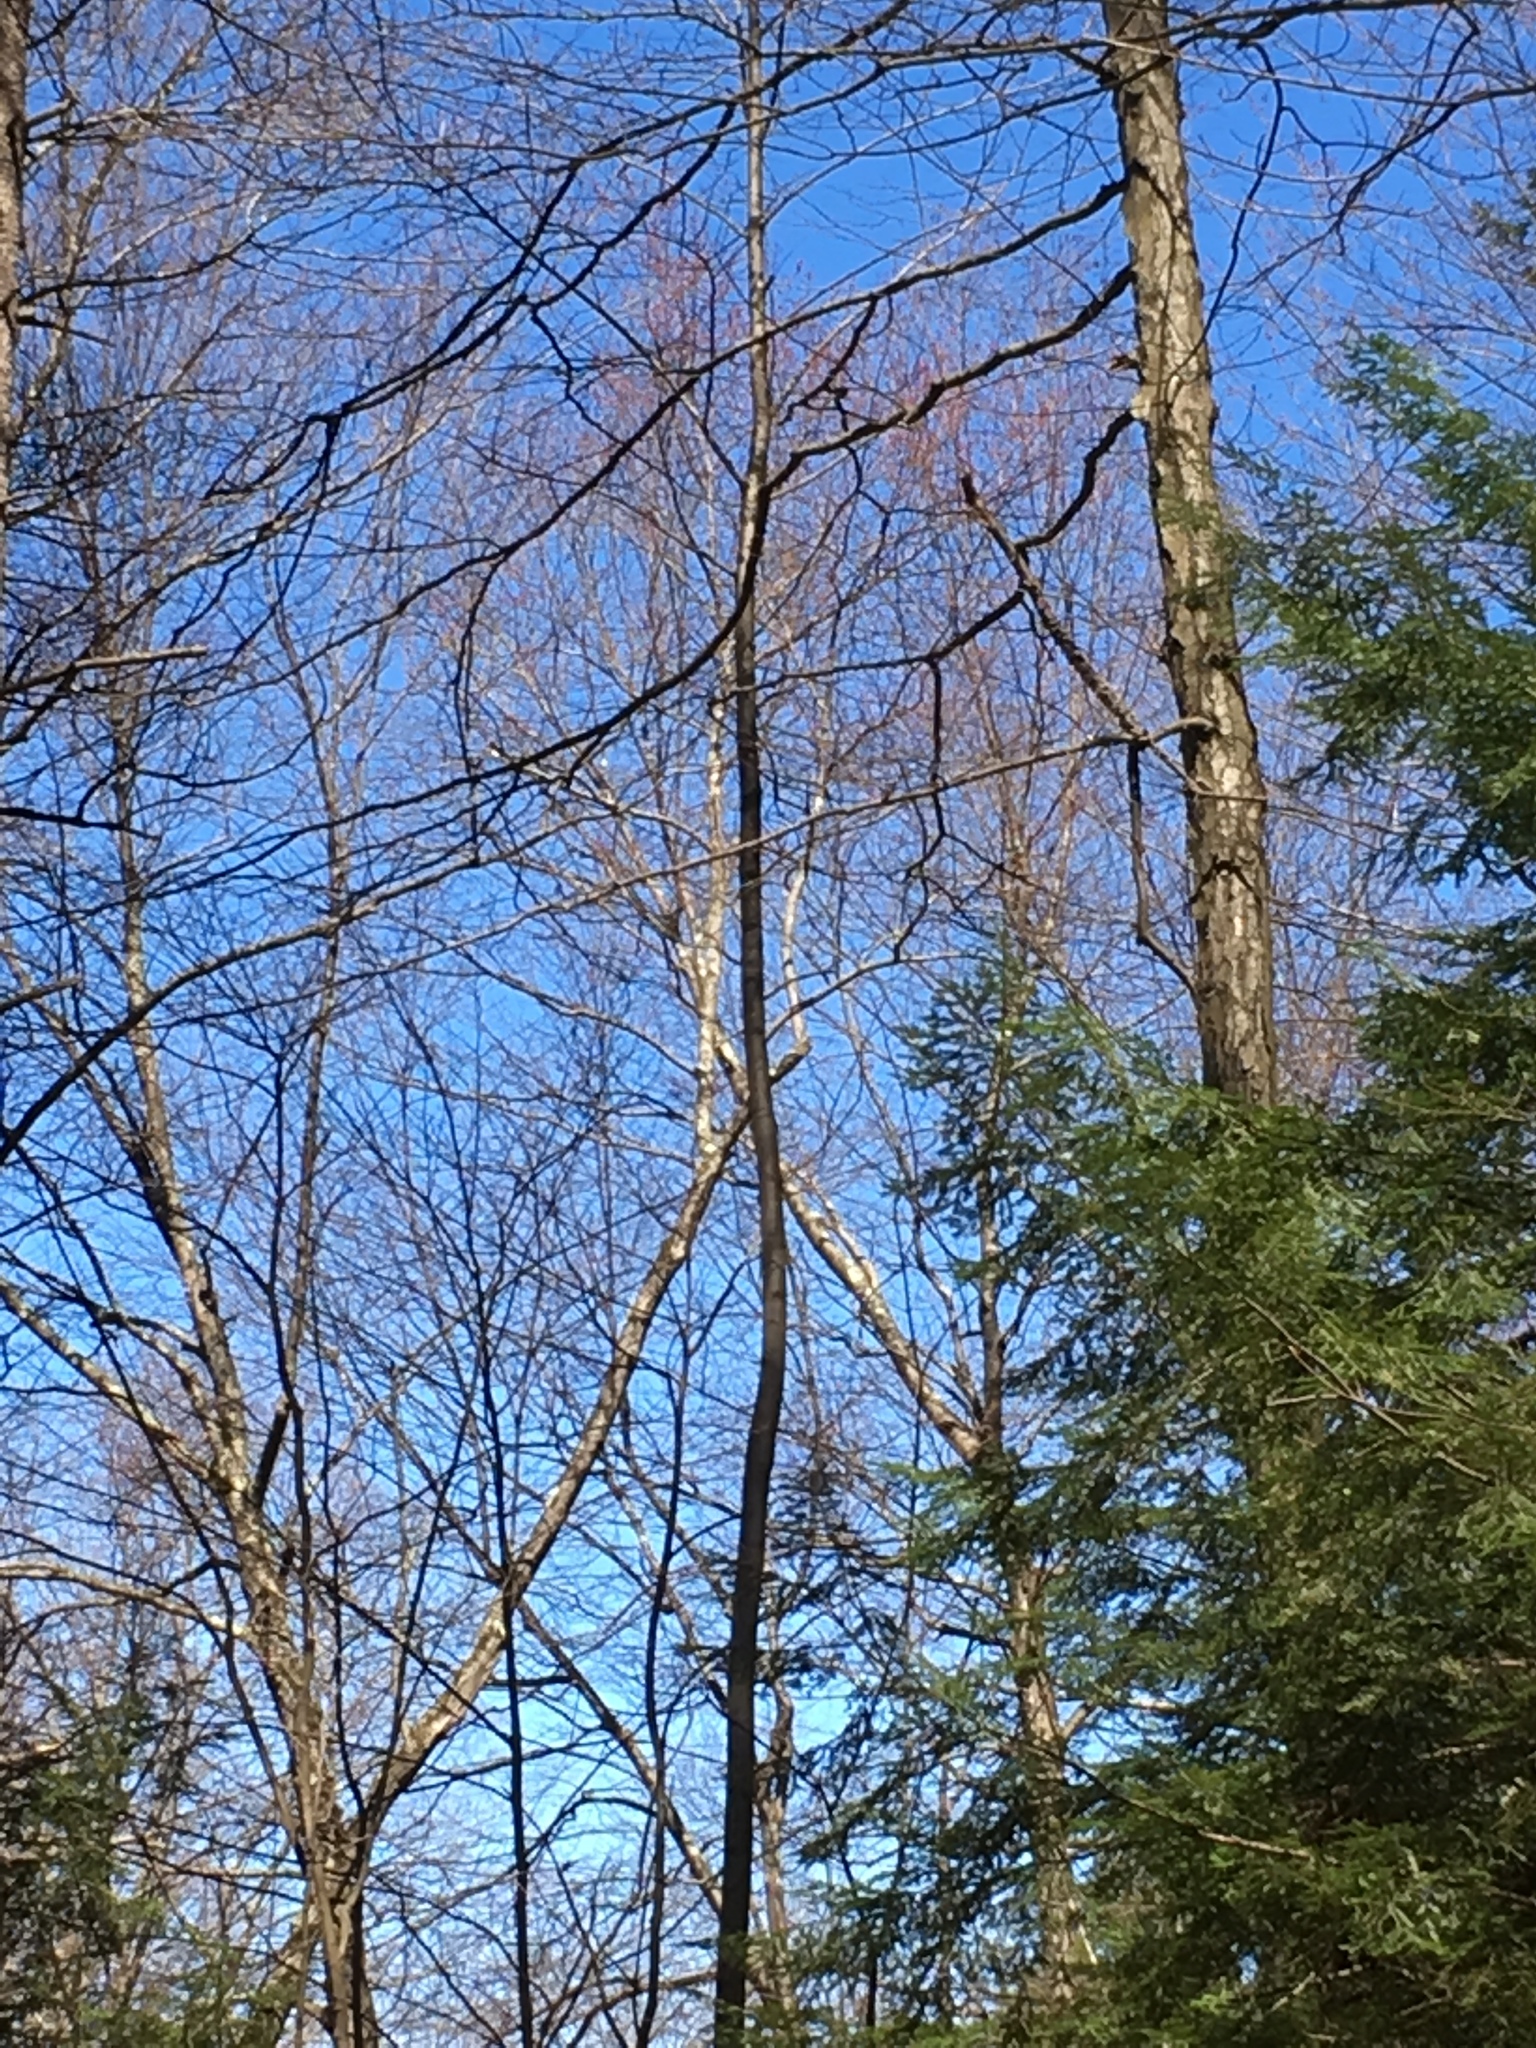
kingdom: Plantae
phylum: Tracheophyta
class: Magnoliopsida
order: Sapindales
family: Sapindaceae
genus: Acer
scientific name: Acer rubrum
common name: Red maple
